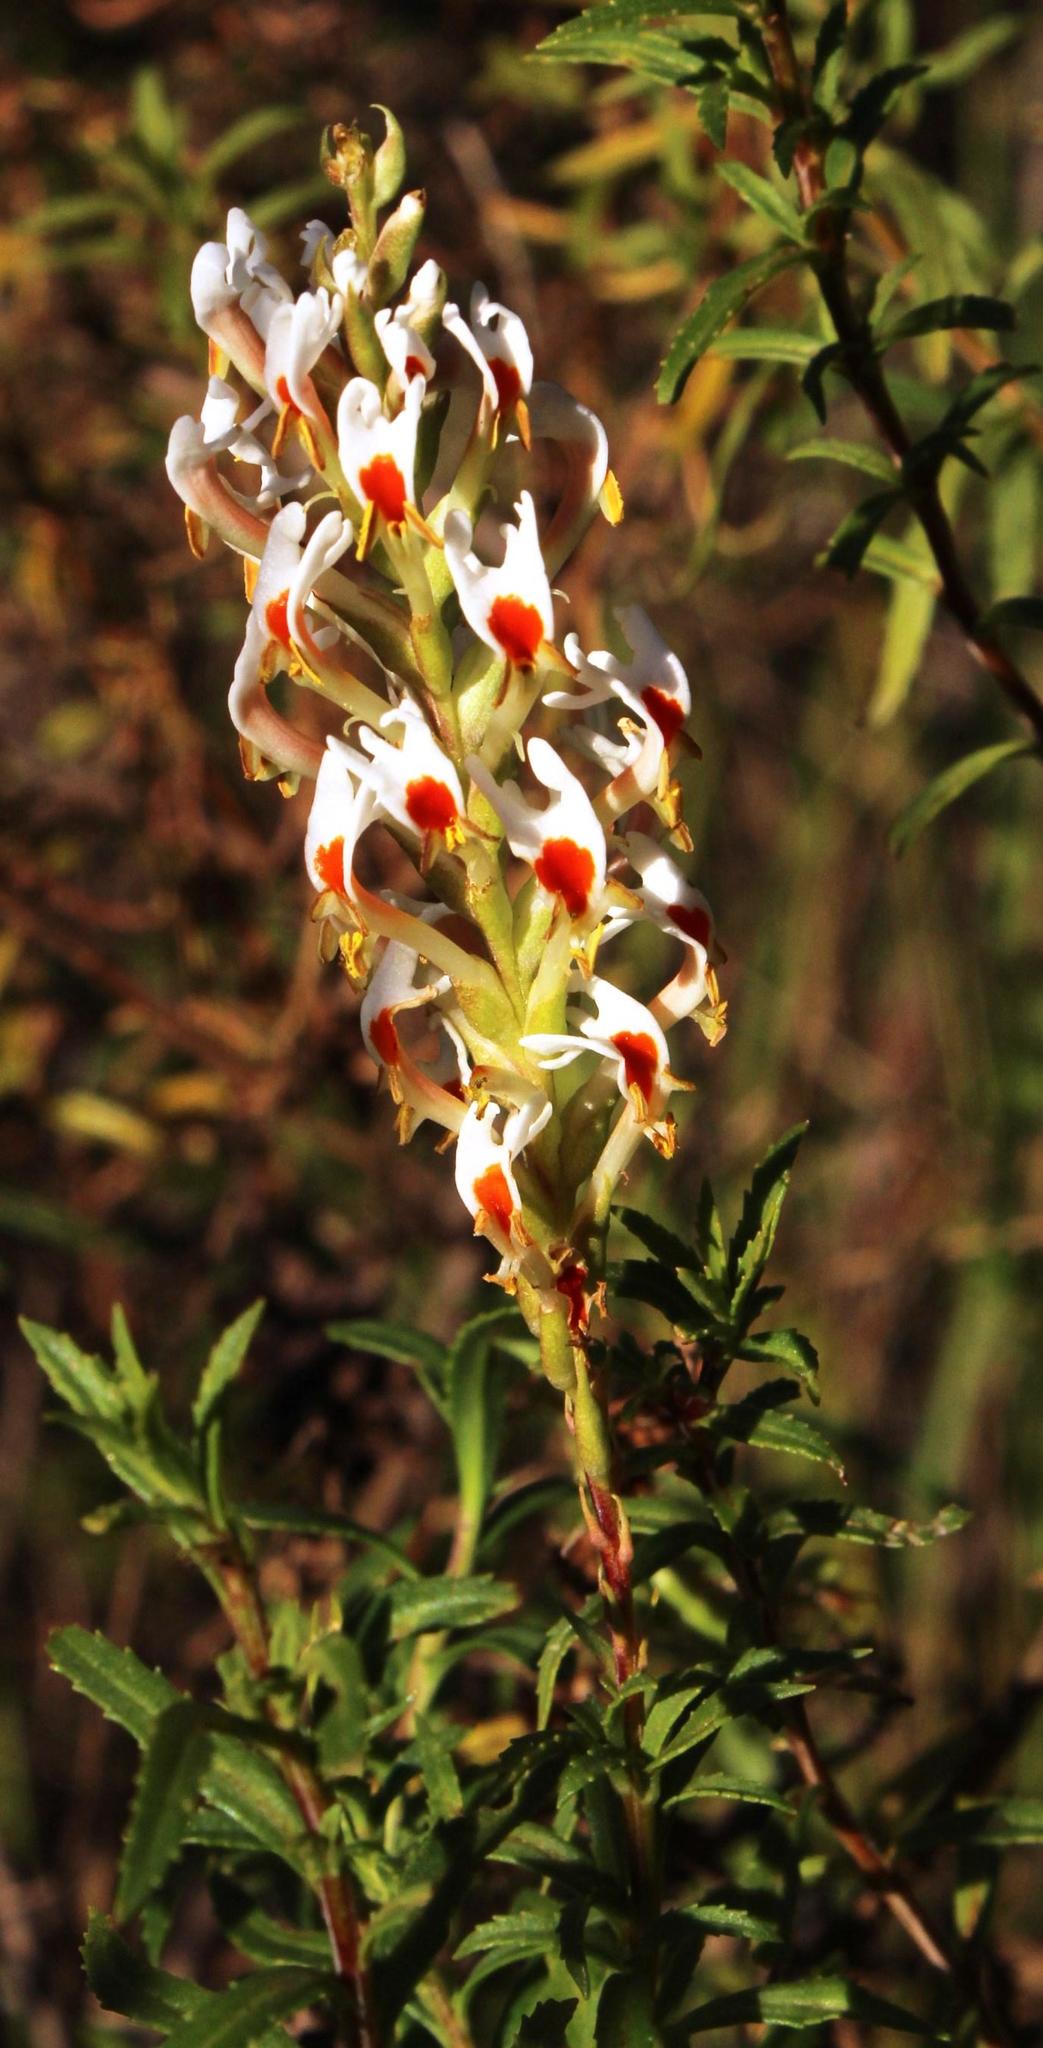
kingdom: Plantae
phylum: Tracheophyta
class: Magnoliopsida
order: Lamiales
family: Scrophulariaceae
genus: Hebenstretia
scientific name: Hebenstretia dura
